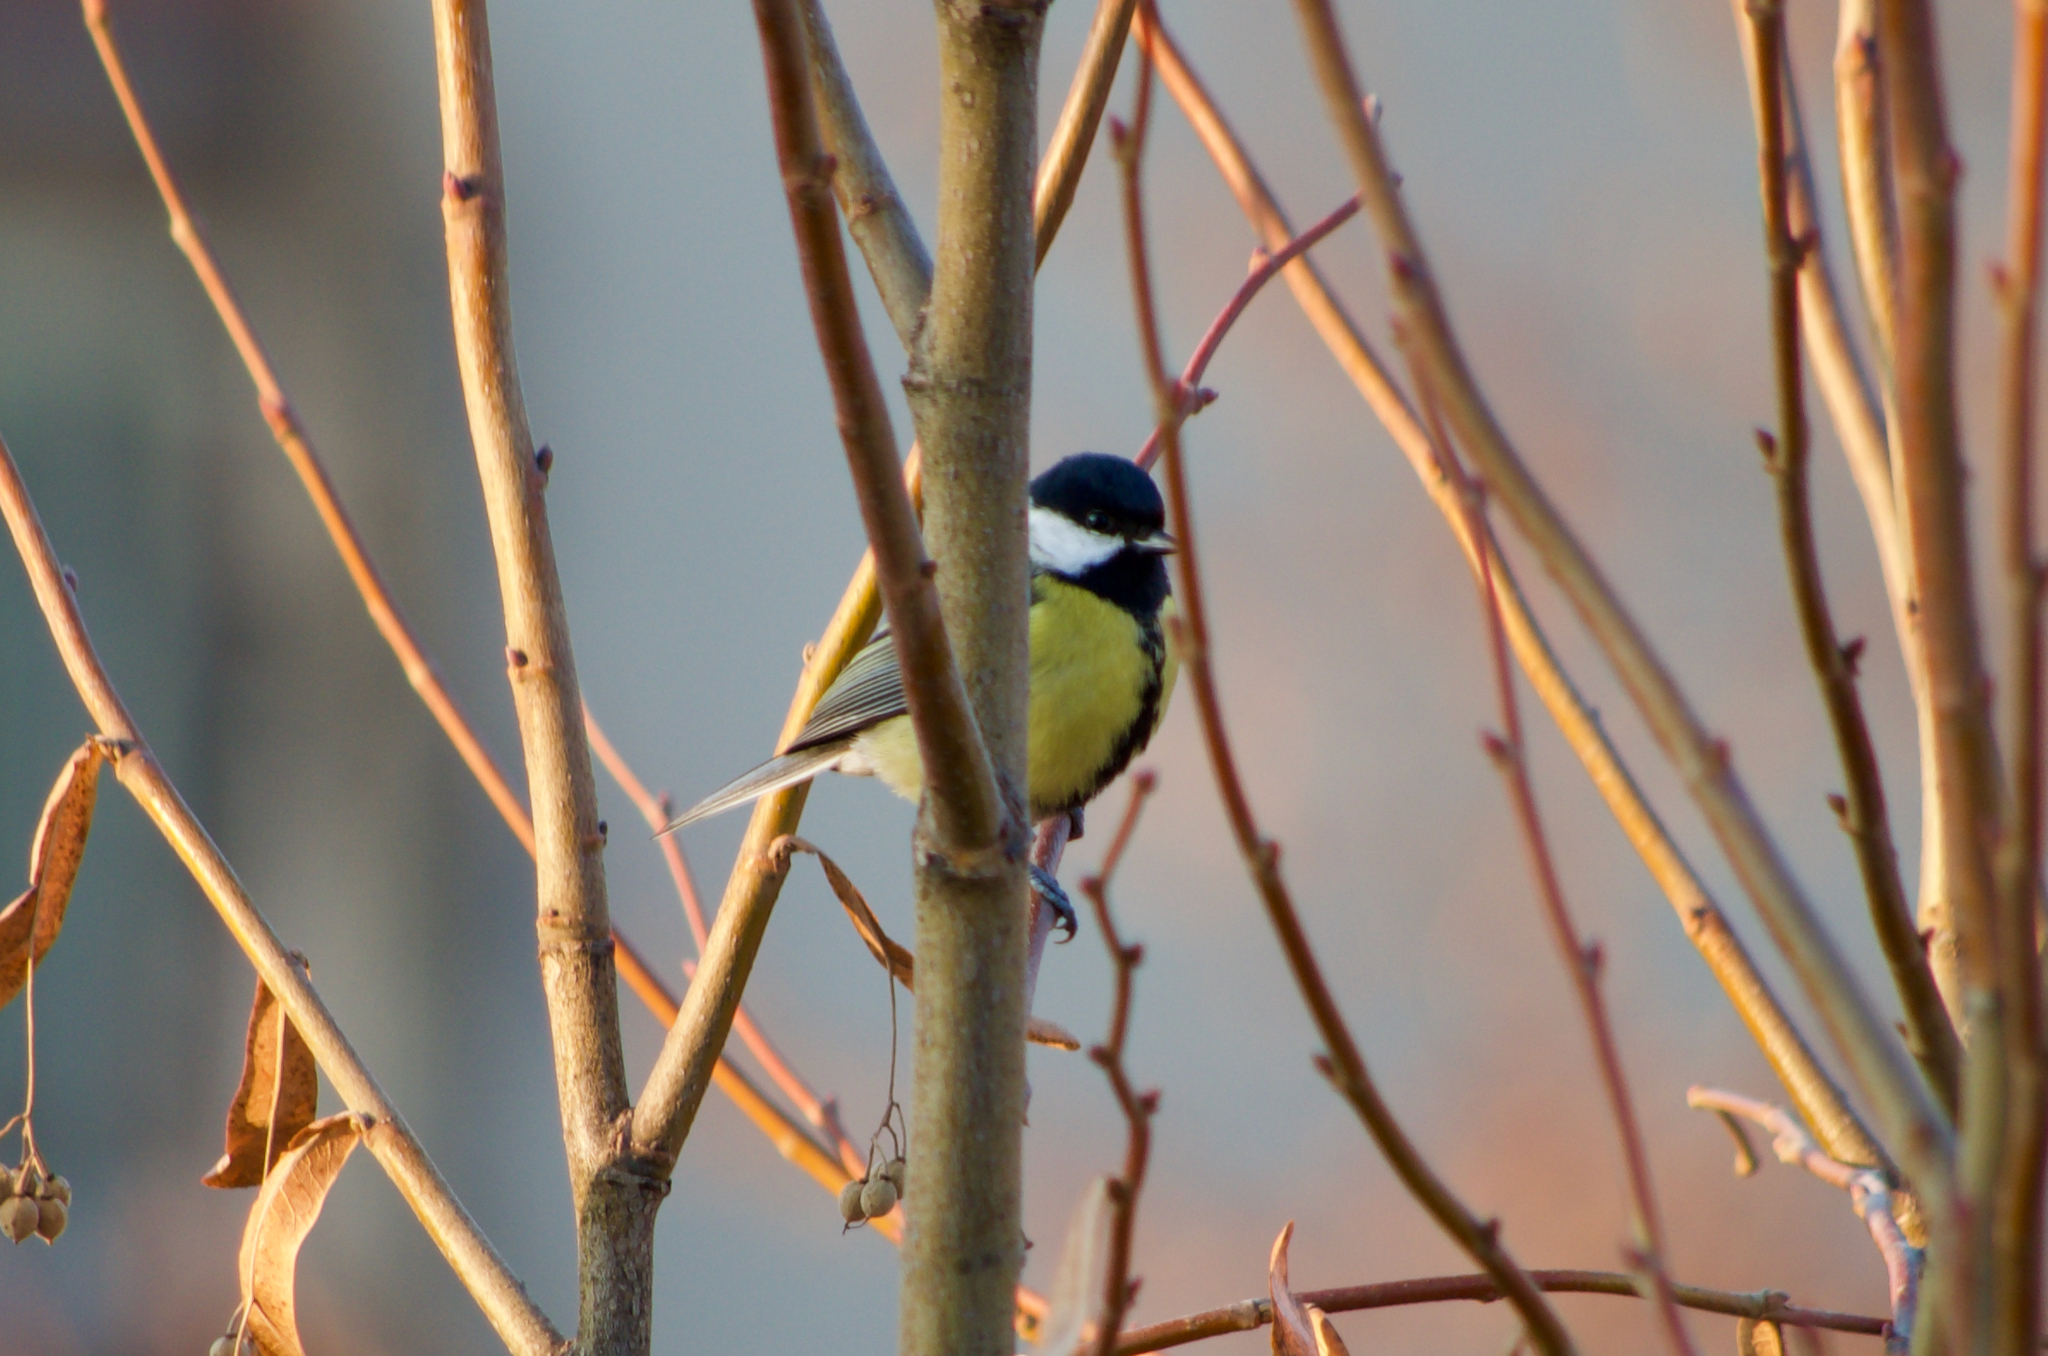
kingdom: Animalia
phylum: Chordata
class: Aves
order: Passeriformes
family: Paridae
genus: Parus
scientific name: Parus major
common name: Great tit
